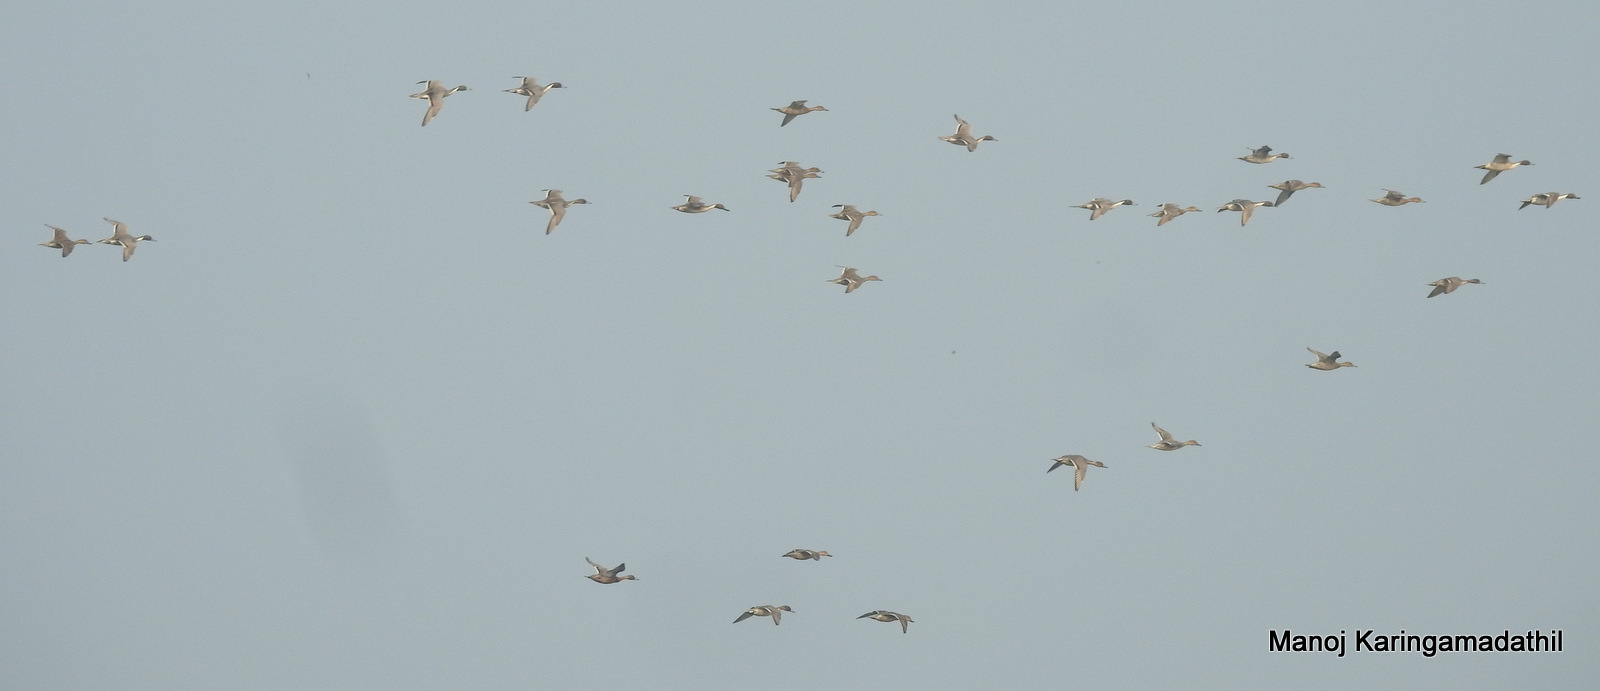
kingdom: Animalia
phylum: Chordata
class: Aves
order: Anseriformes
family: Anatidae
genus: Anas
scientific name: Anas acuta
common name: Northern pintail
